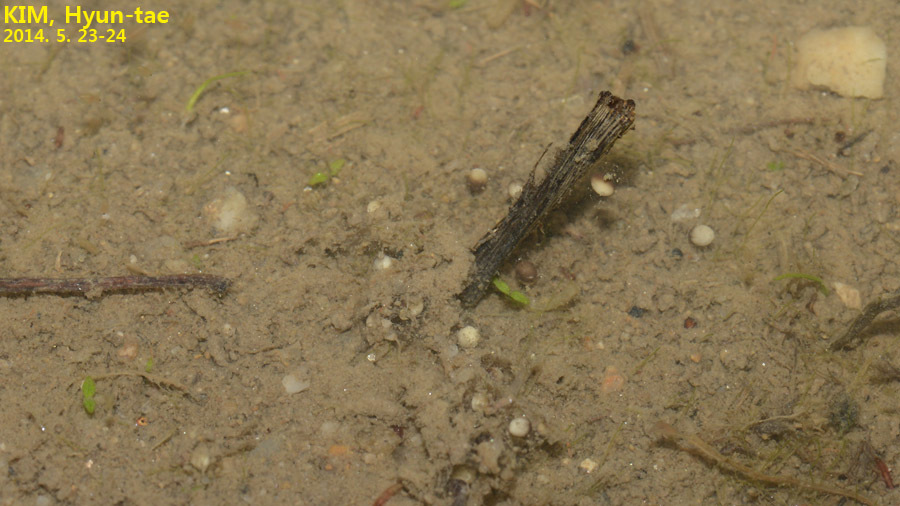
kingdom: Animalia
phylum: Chordata
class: Amphibia
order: Anura
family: Hylidae
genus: Dryophytes
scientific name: Dryophytes immaculatus
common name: North china treefrog
